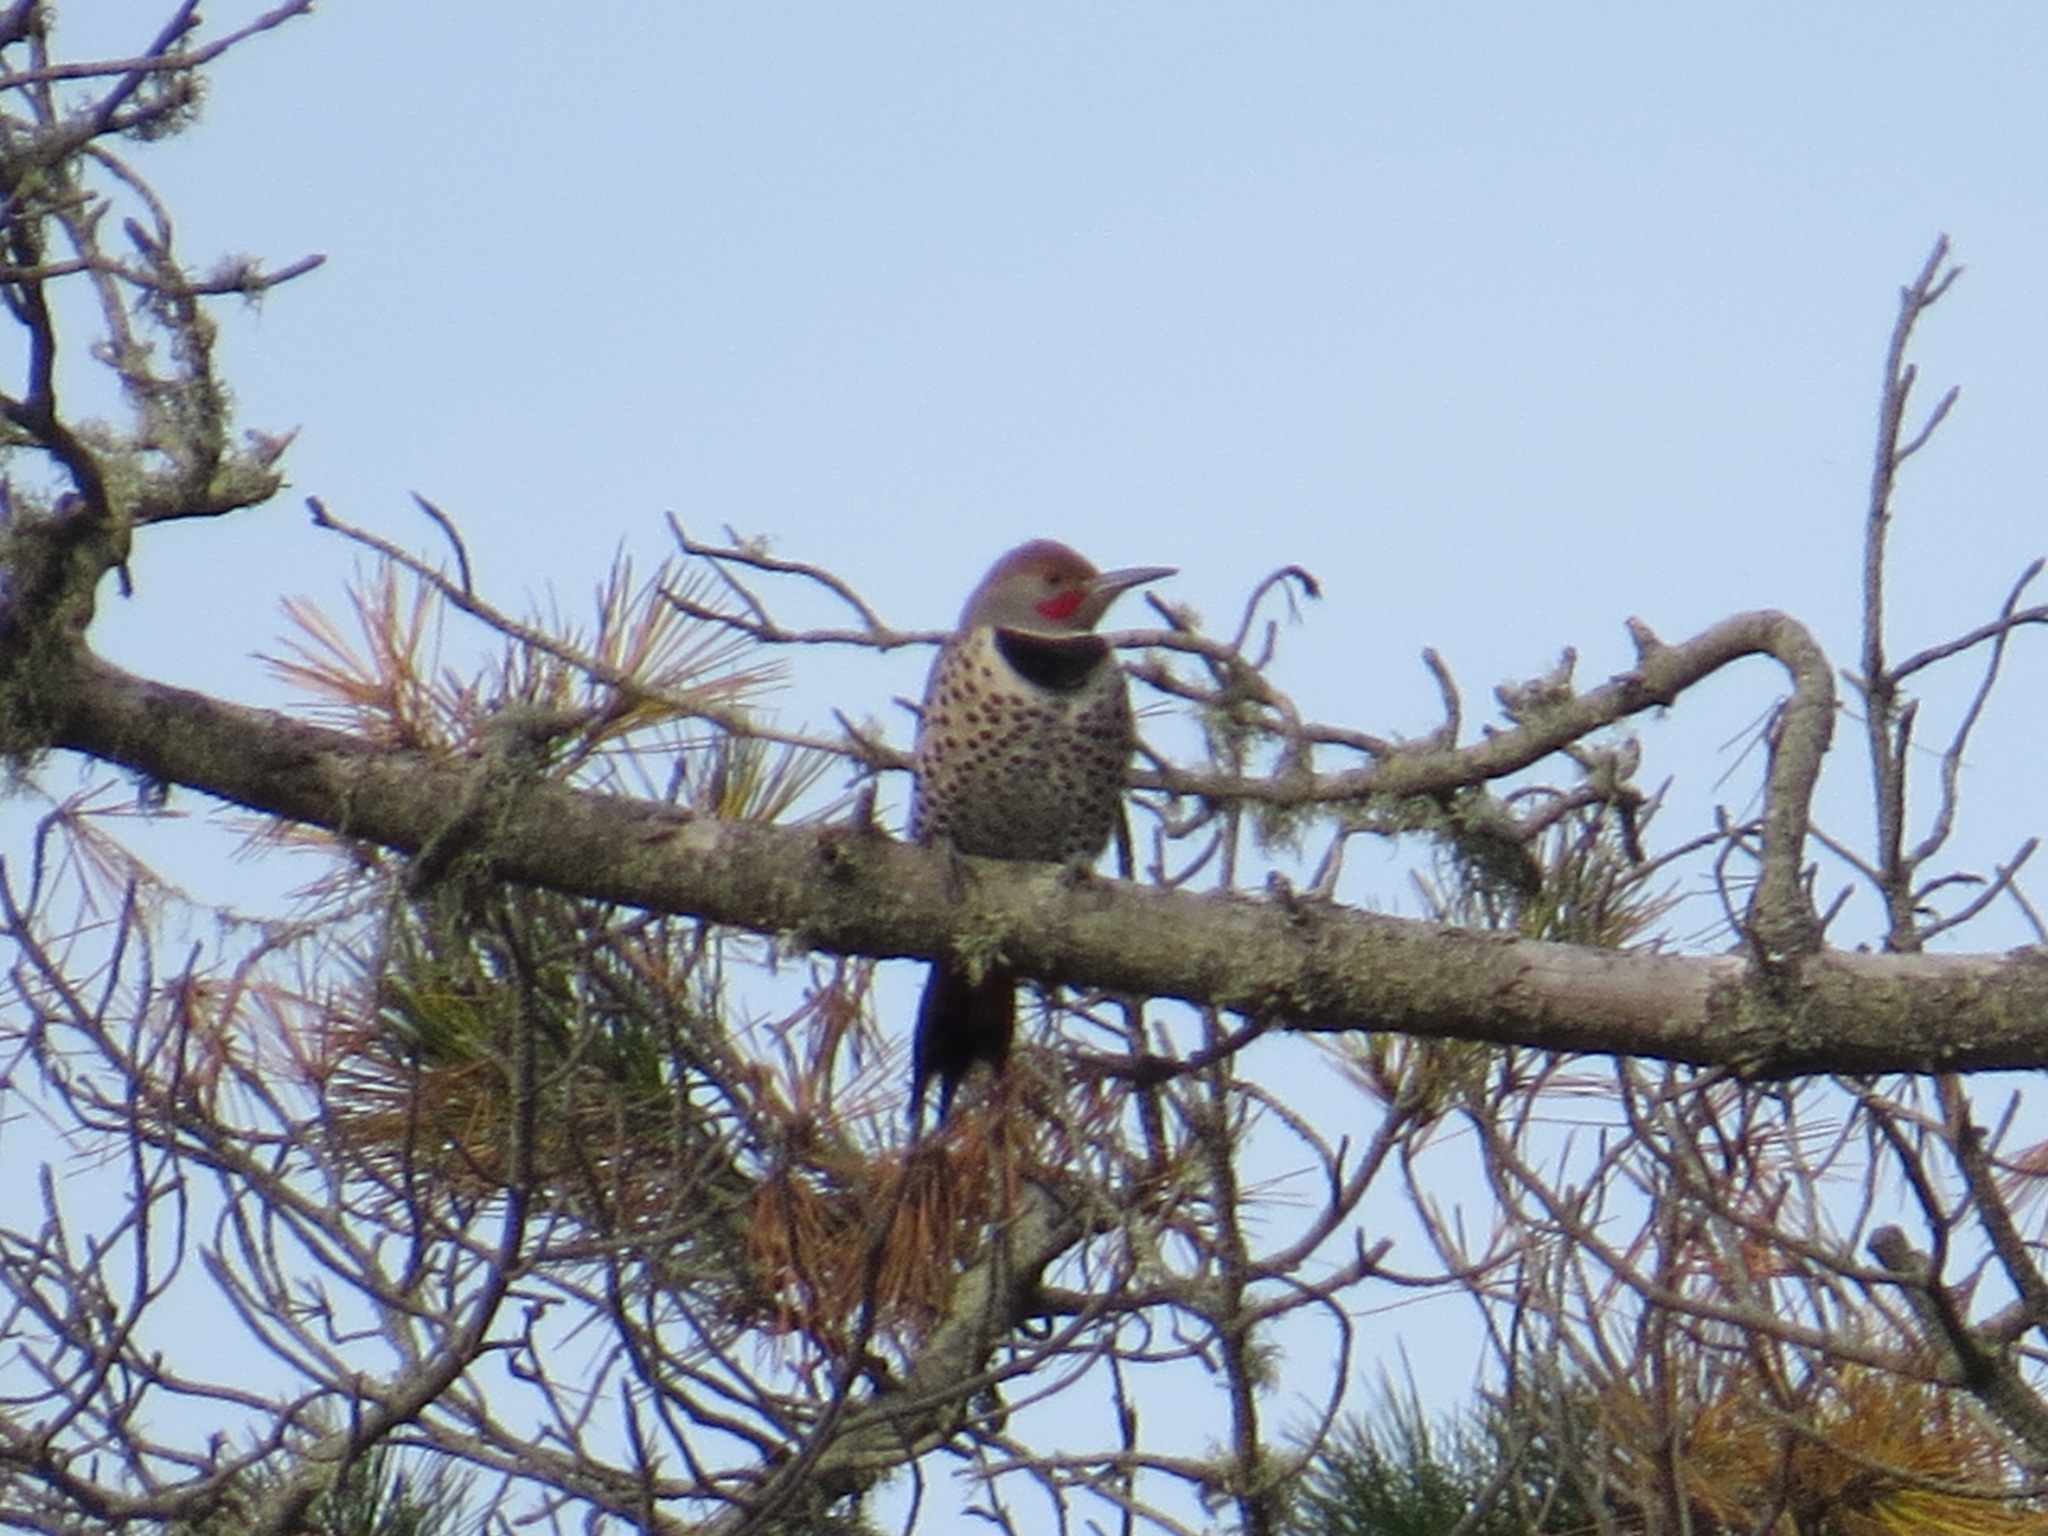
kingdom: Animalia
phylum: Chordata
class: Aves
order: Piciformes
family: Picidae
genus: Colaptes
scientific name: Colaptes auratus
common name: Northern flicker
